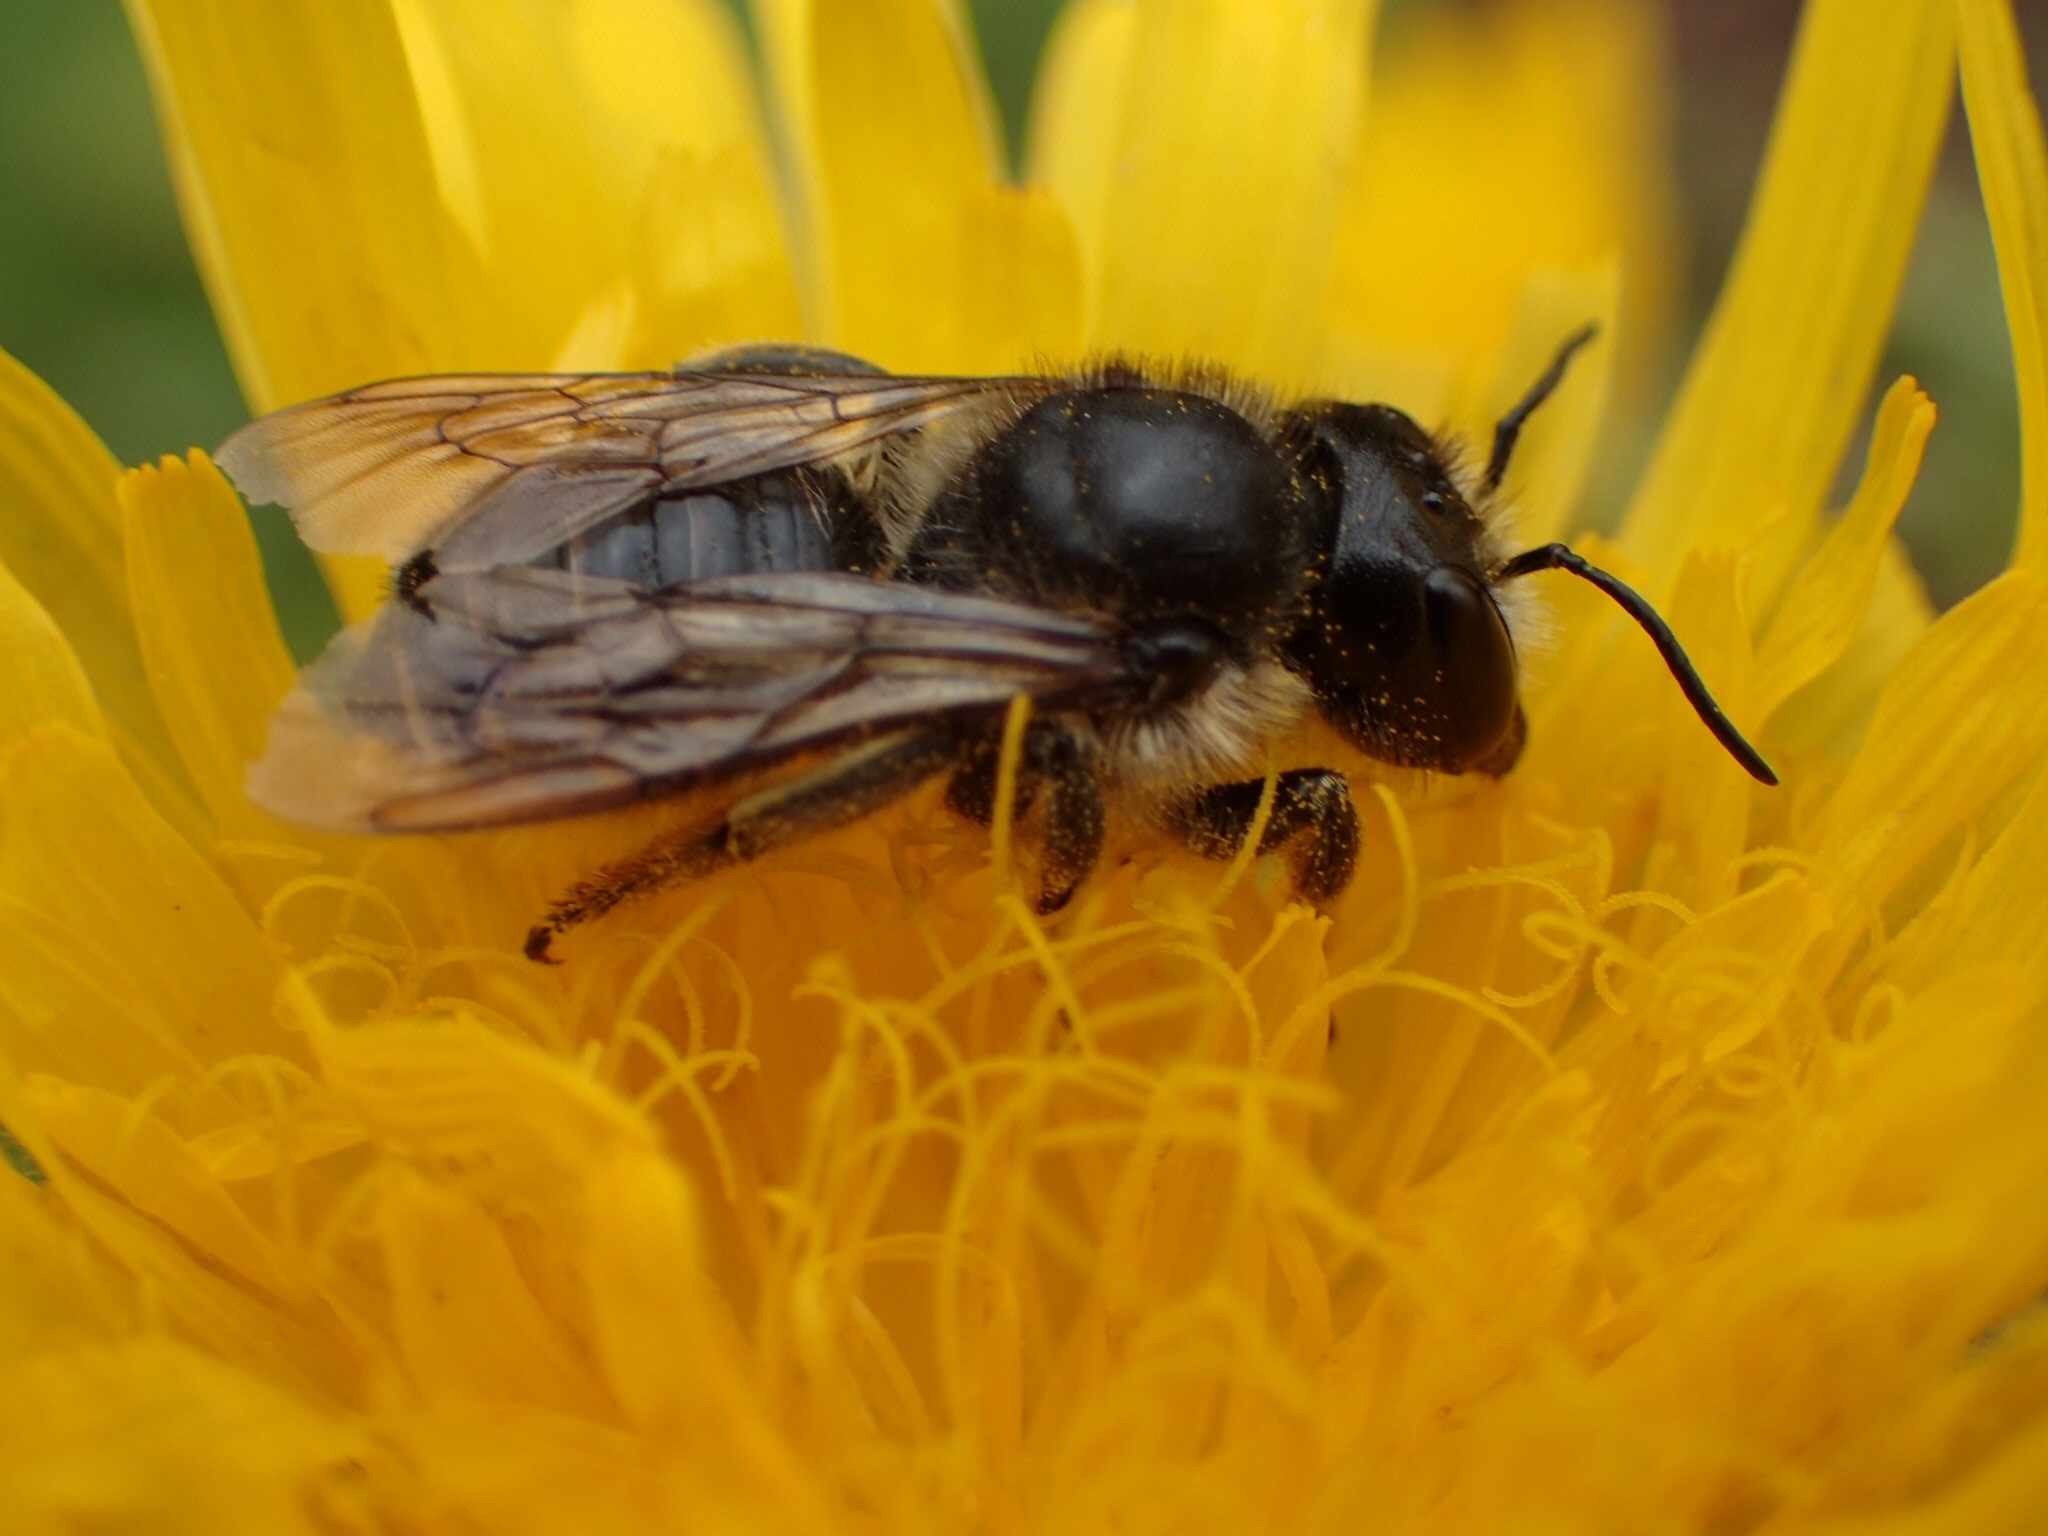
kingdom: Animalia
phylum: Arthropoda
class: Insecta
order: Hymenoptera
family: Megachilidae
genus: Megachile
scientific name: Megachile inermis
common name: Unarmed leafcutter bee
